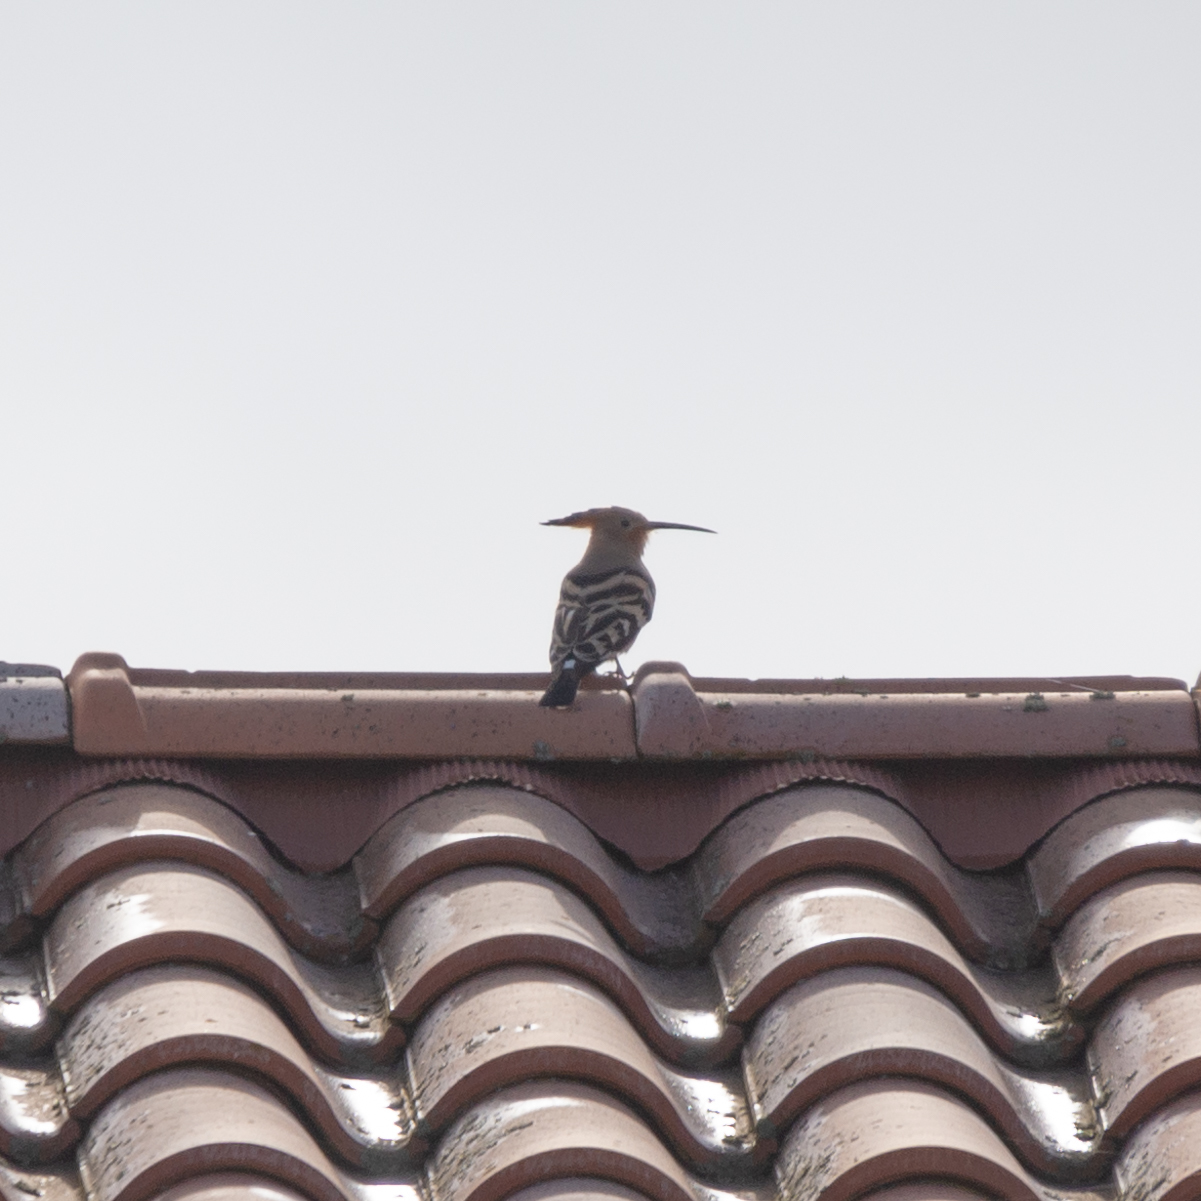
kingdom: Animalia
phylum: Chordata
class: Aves
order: Bucerotiformes
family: Upupidae
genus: Upupa
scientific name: Upupa epops
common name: Eurasian hoopoe
